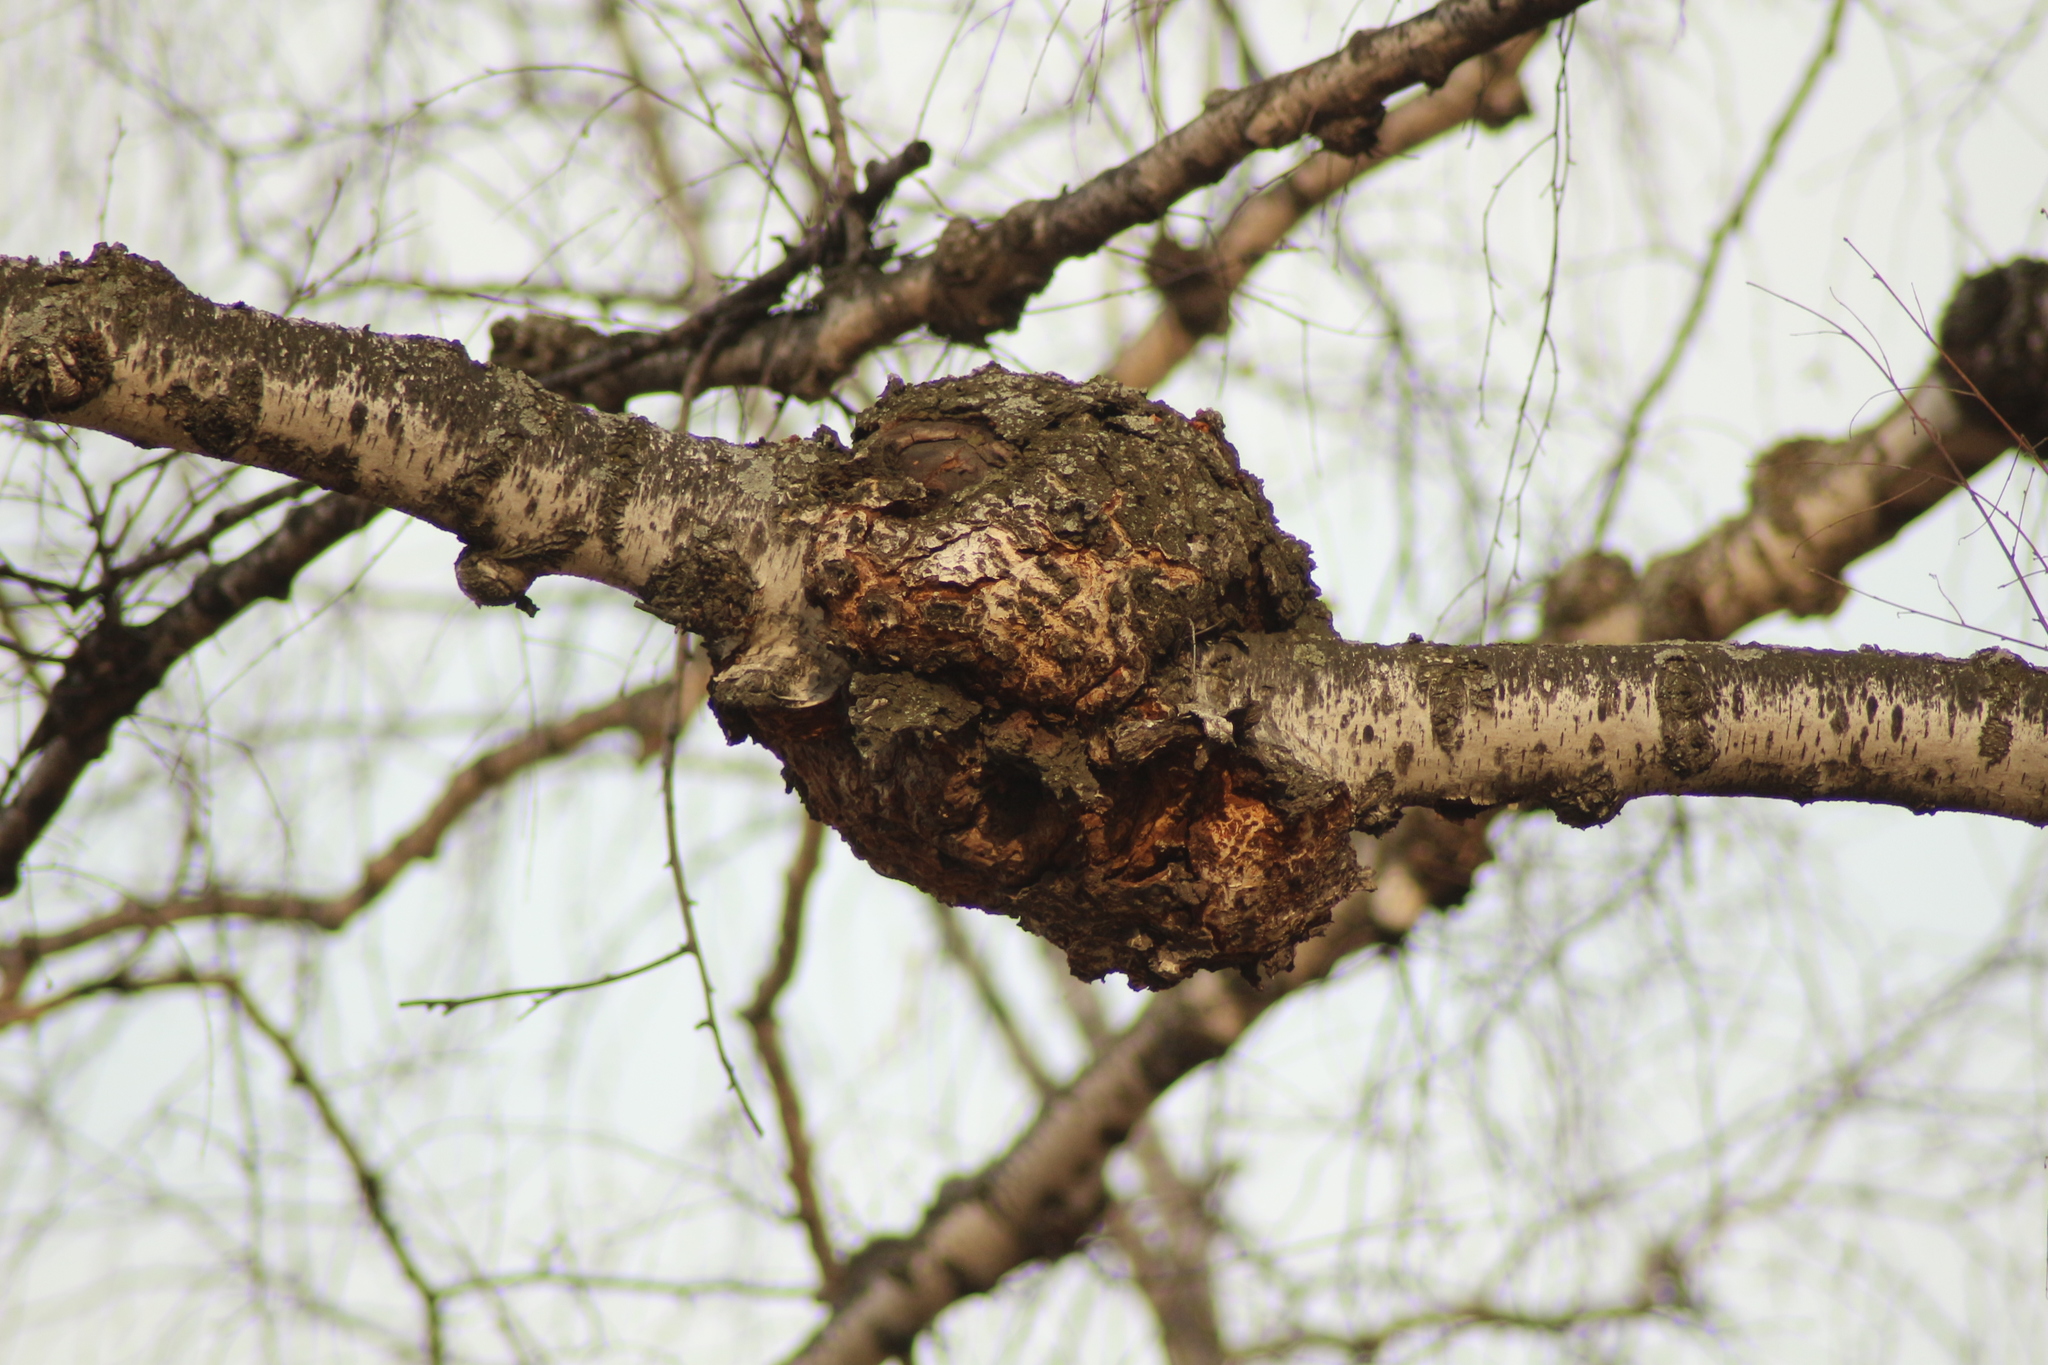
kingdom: Bacteria
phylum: Proteobacteria
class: Alphaproteobacteria
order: Rhizobiales
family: Rhizobiaceae
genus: Rhizobium
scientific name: Rhizobium Agrobacterium radiobacter
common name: Bacterial crown gall
